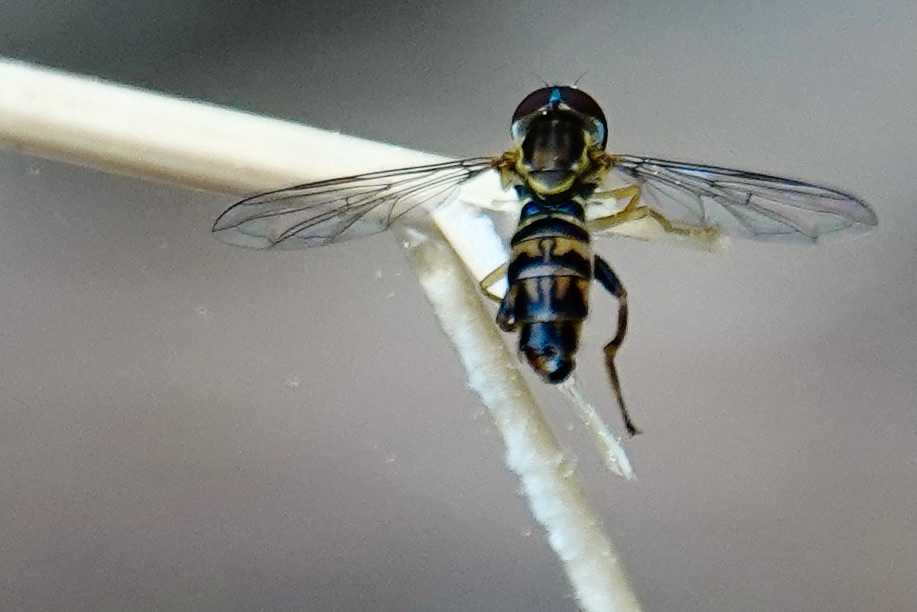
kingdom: Animalia
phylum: Arthropoda
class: Insecta
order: Diptera
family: Syrphidae
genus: Toxomerus
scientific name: Toxomerus geminatus
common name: Eastern calligrapher
